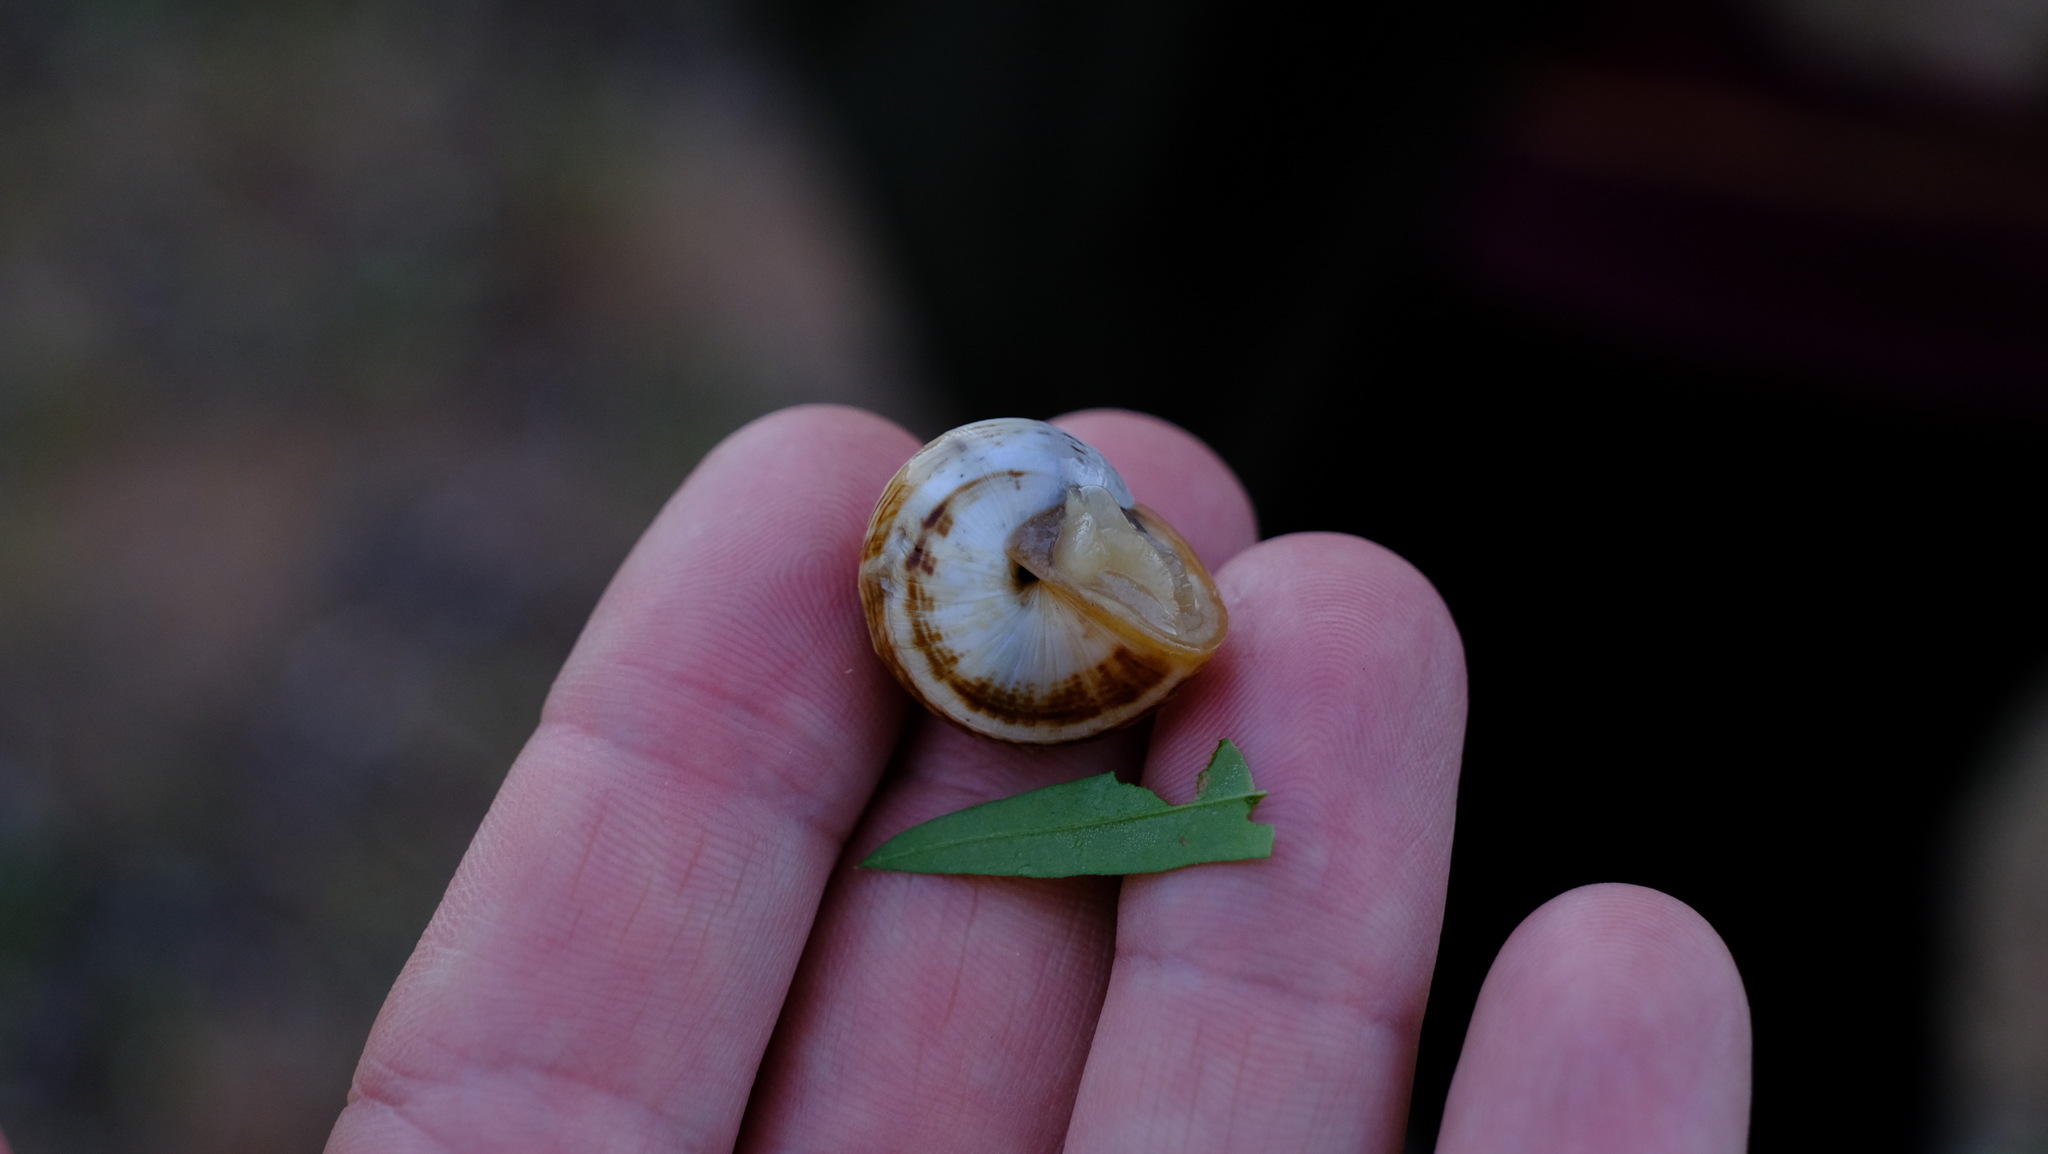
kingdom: Animalia
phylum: Mollusca
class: Gastropoda
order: Stylommatophora
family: Helicidae
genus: Theba
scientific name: Theba pisana
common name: White snail
